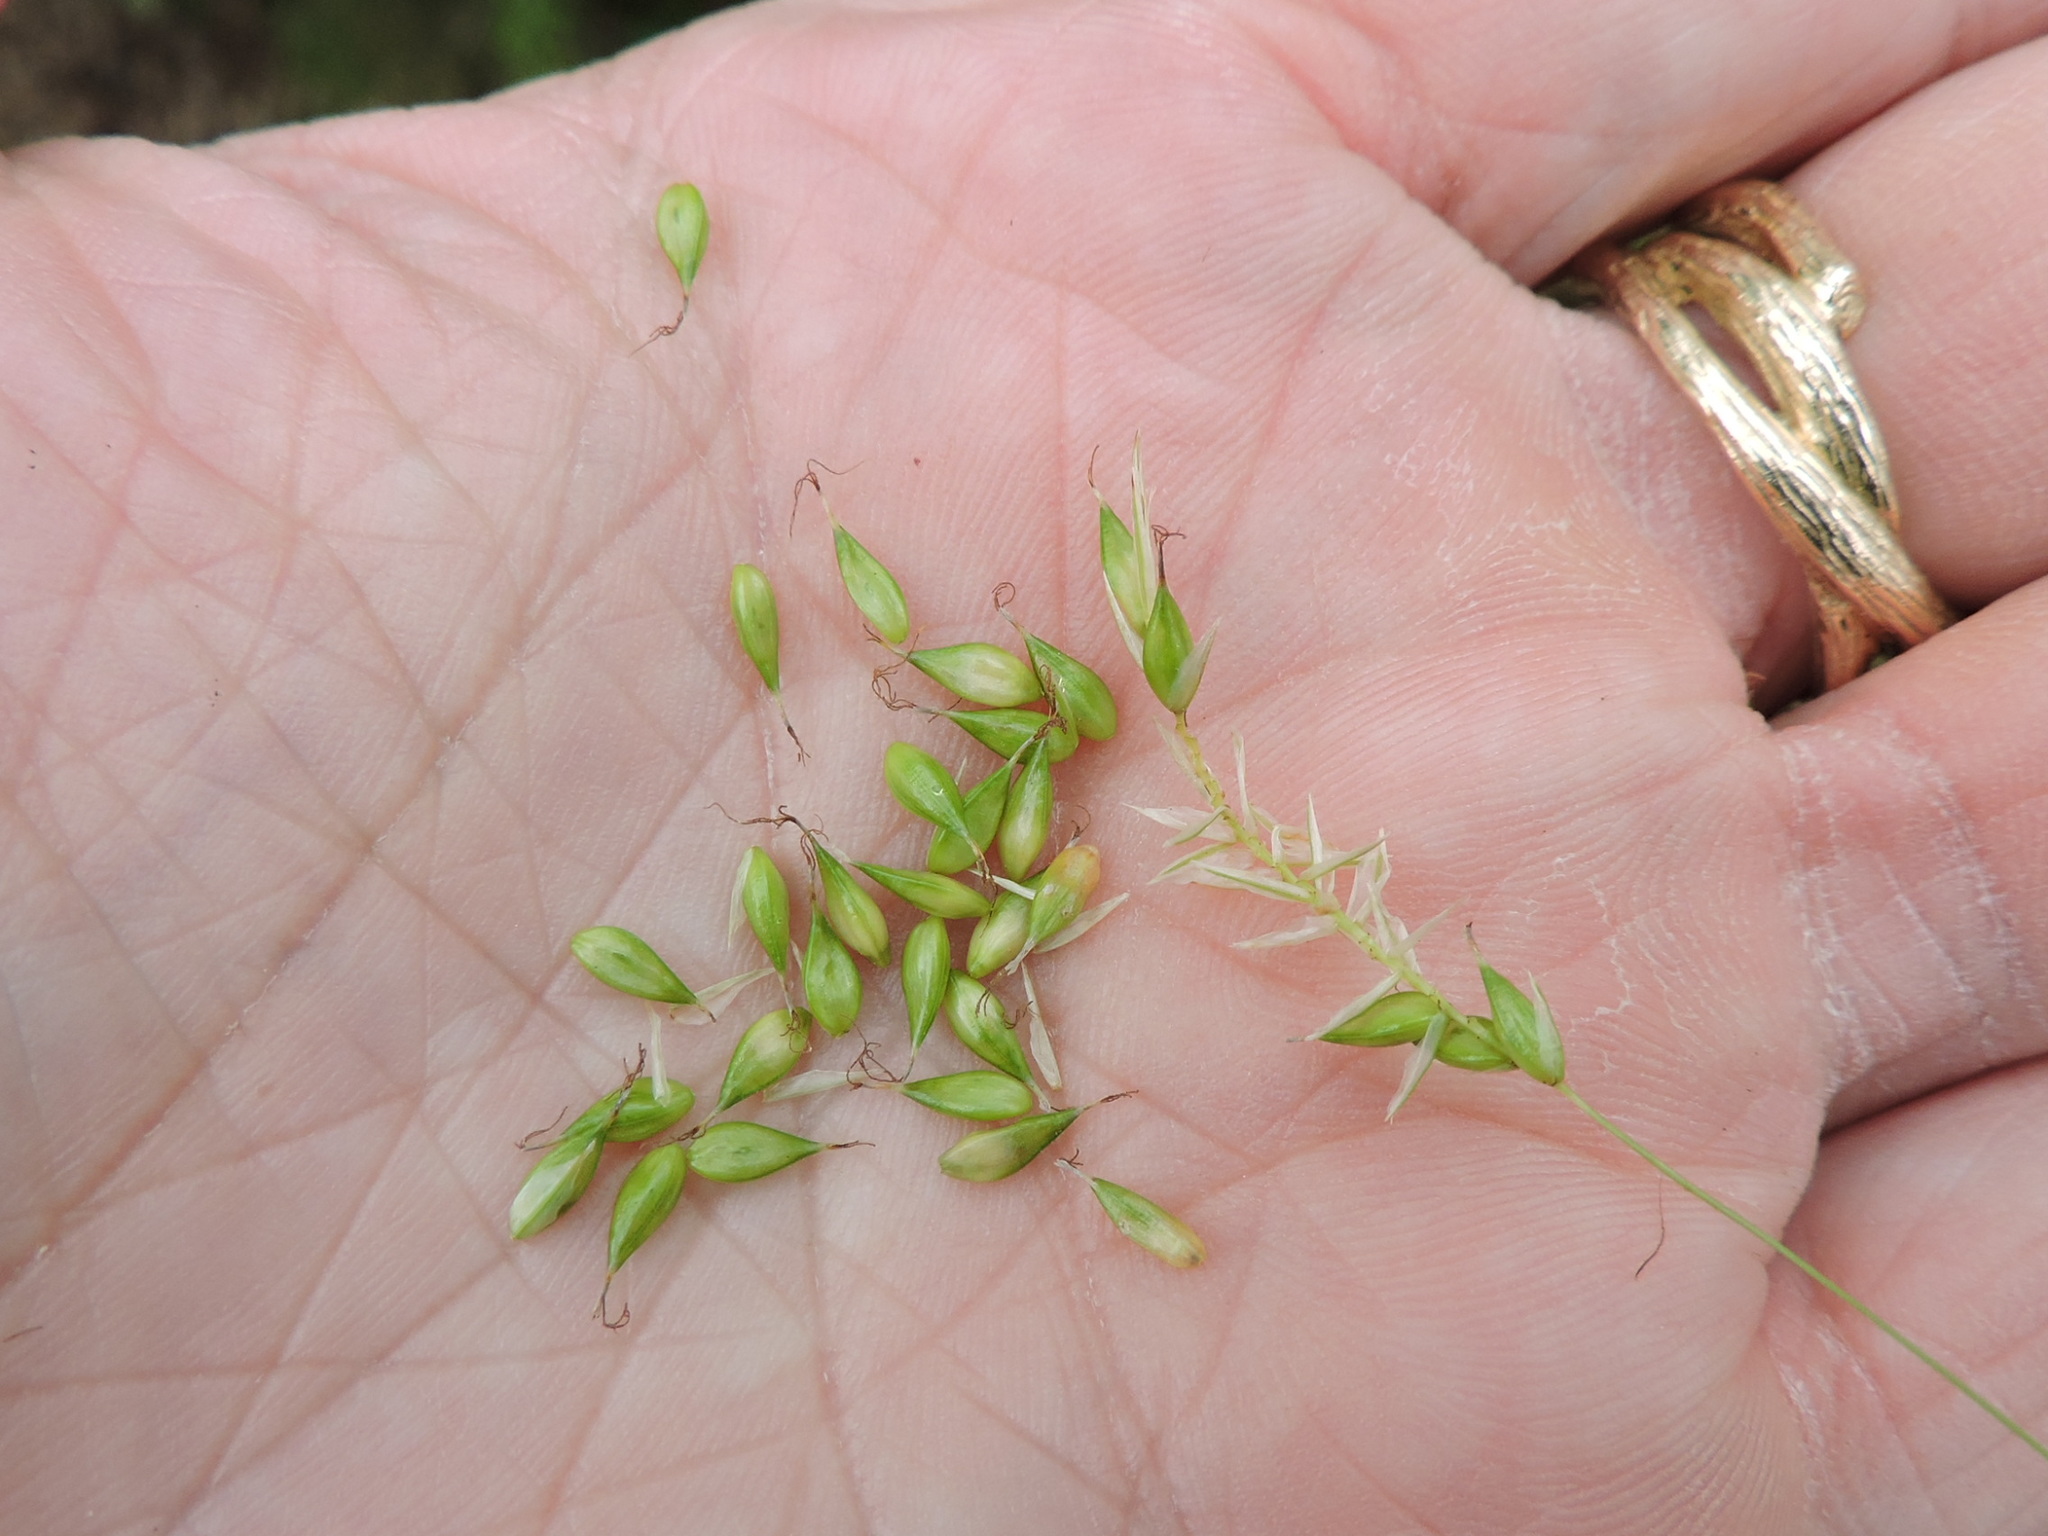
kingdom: Plantae
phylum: Tracheophyta
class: Liliopsida
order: Poales
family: Cyperaceae
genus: Carex
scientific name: Carex cherokeensis
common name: Cherokee sedge
